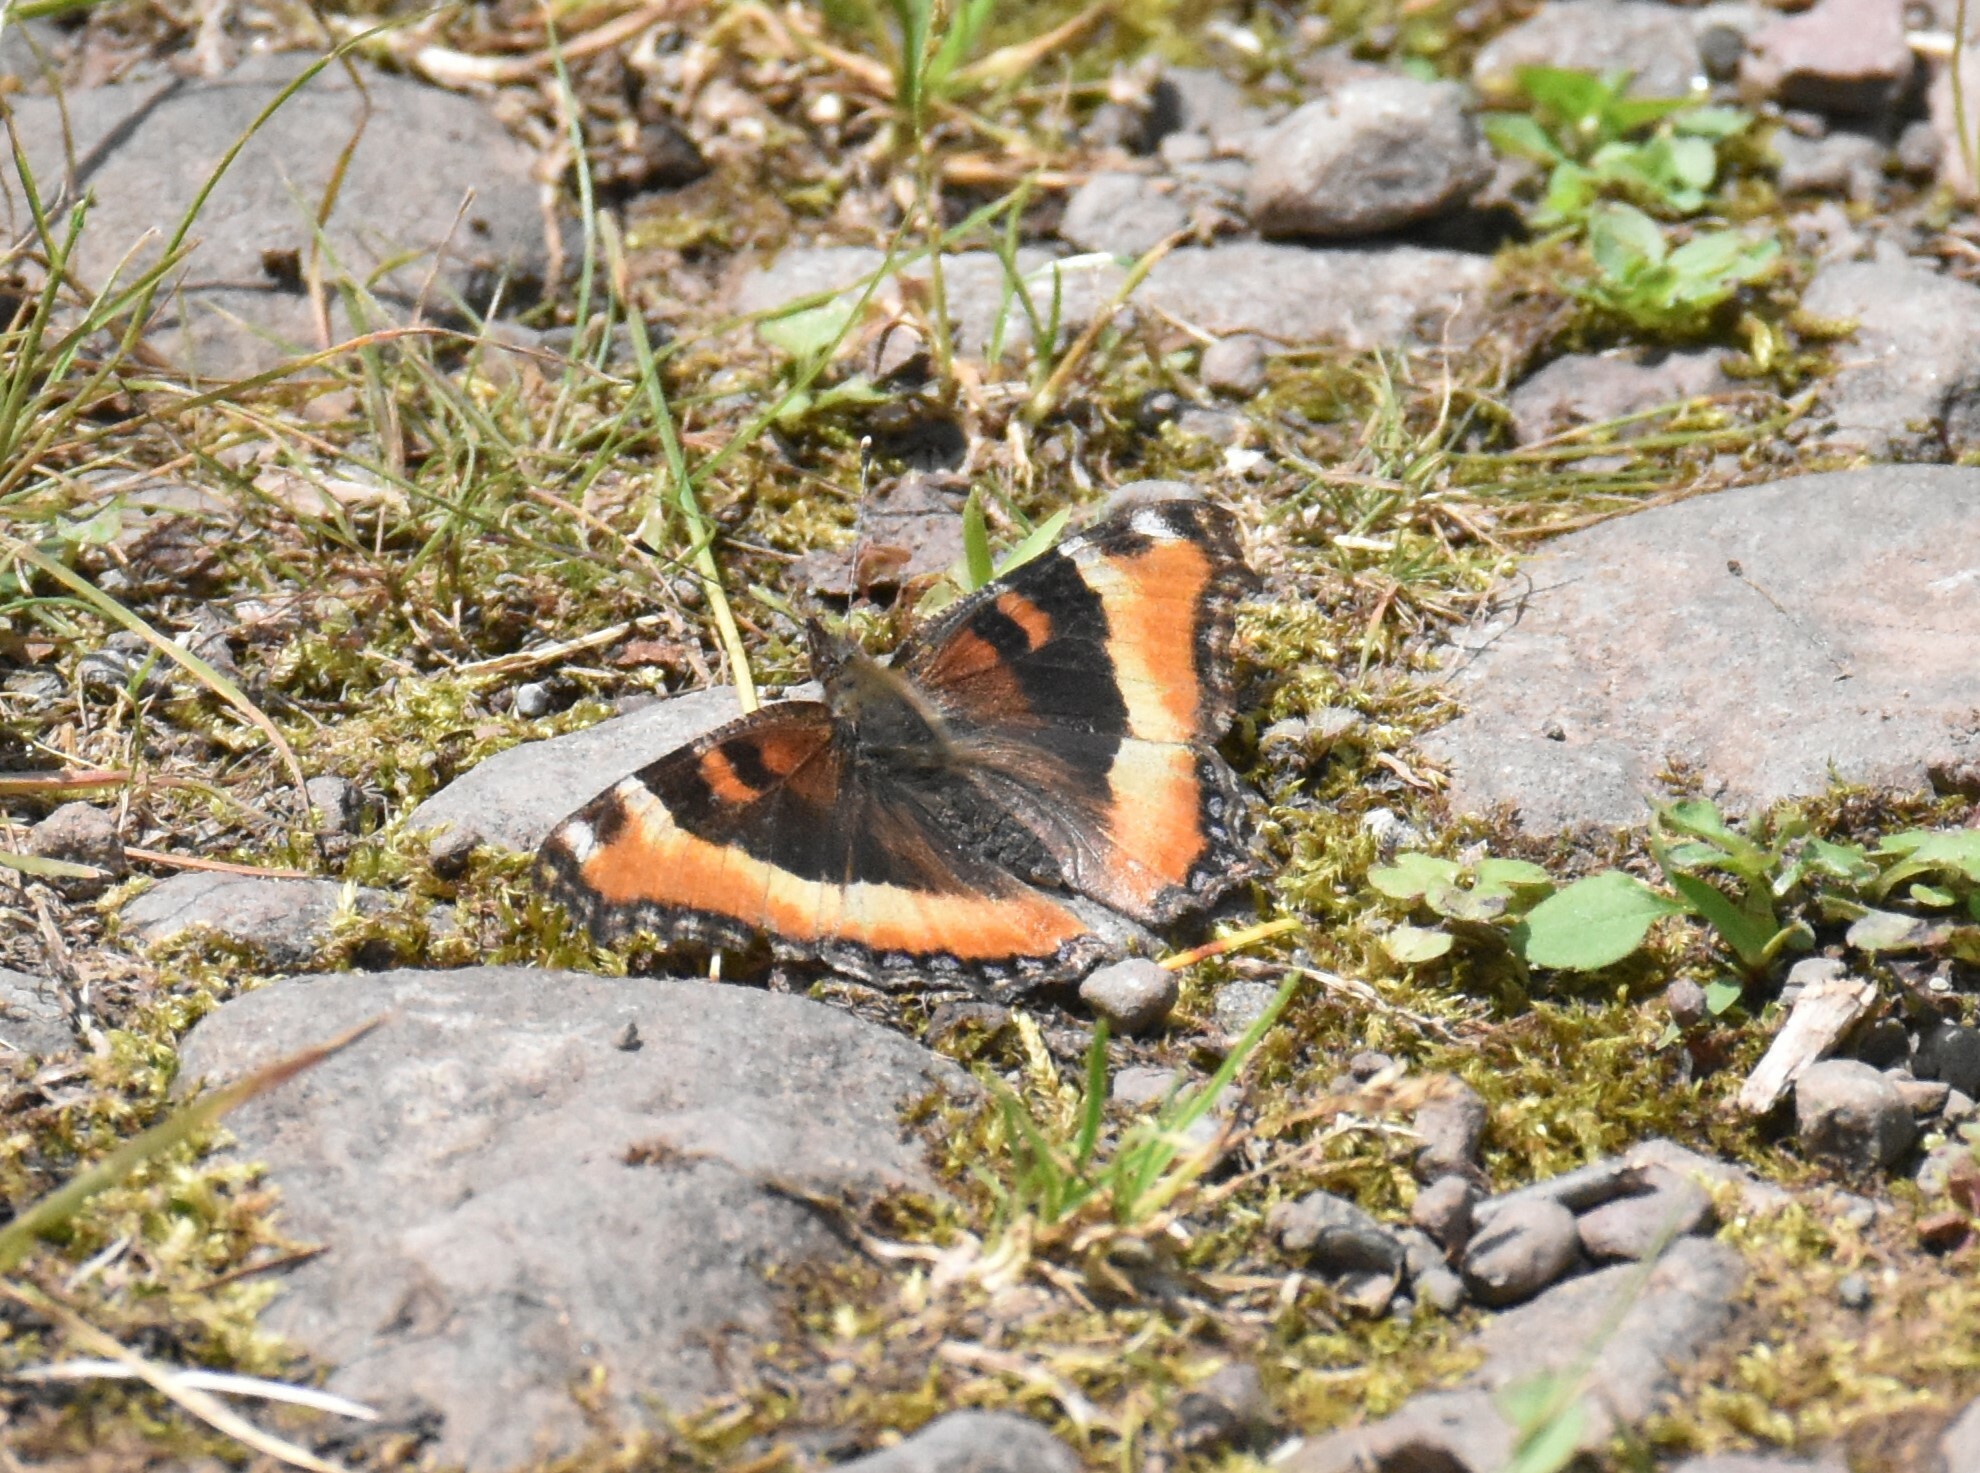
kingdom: Animalia
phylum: Arthropoda
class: Insecta
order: Lepidoptera
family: Nymphalidae
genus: Aglais
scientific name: Aglais milberti
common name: Milbert's tortoiseshell
